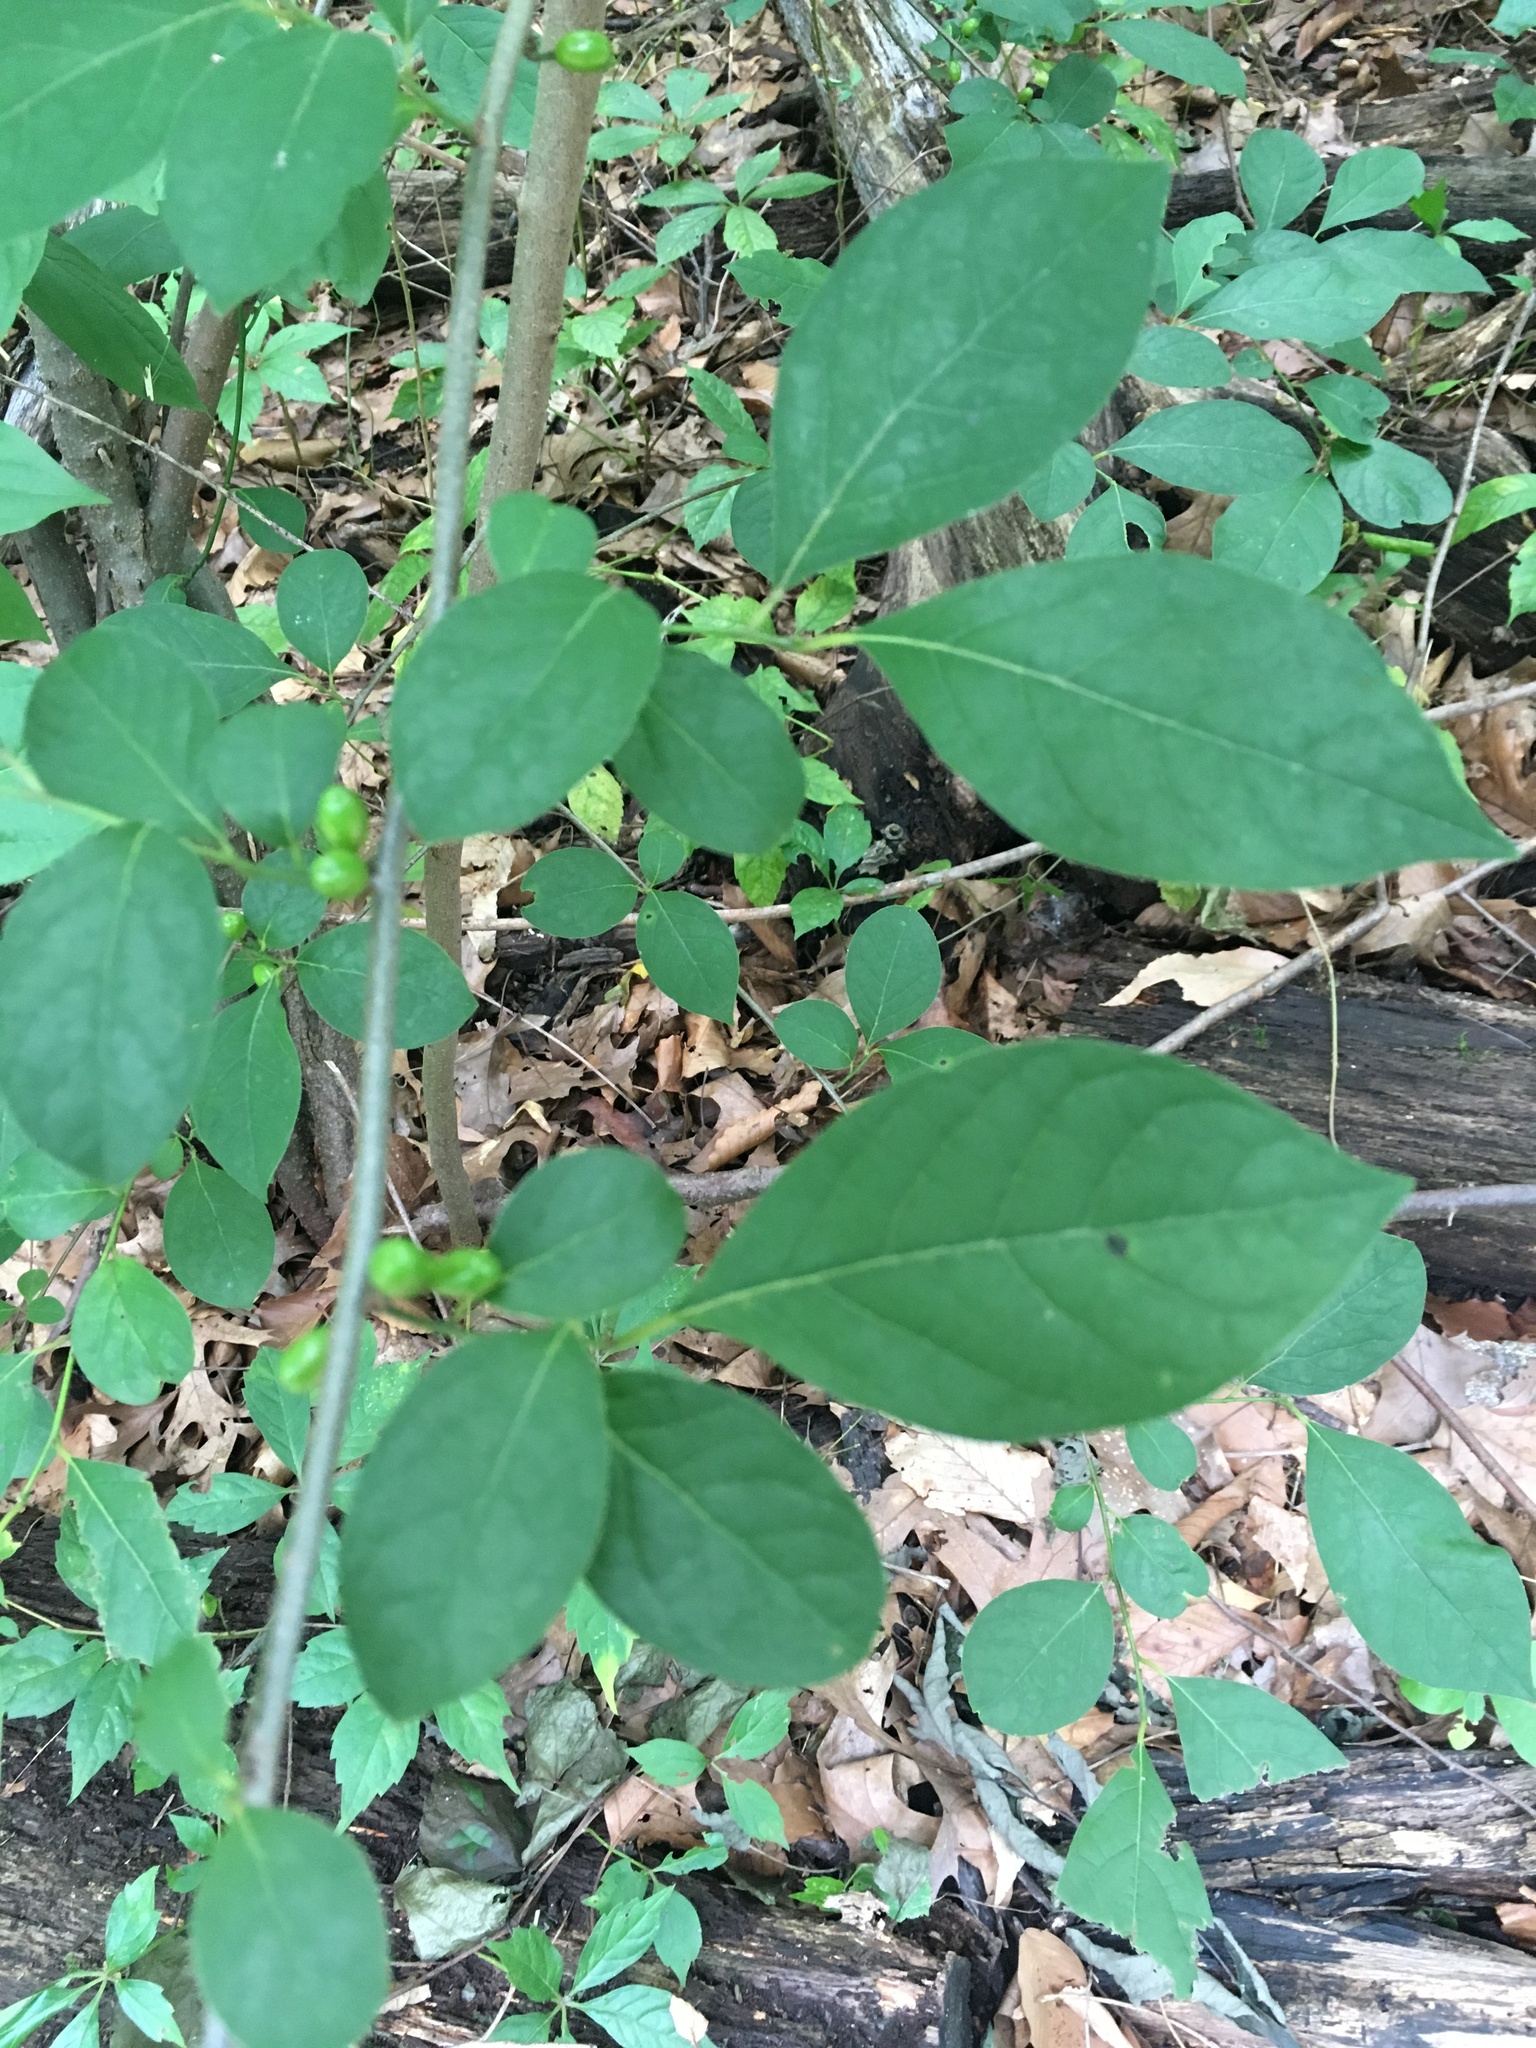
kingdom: Plantae
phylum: Tracheophyta
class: Magnoliopsida
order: Laurales
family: Lauraceae
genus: Lindera
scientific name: Lindera benzoin
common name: Spicebush
